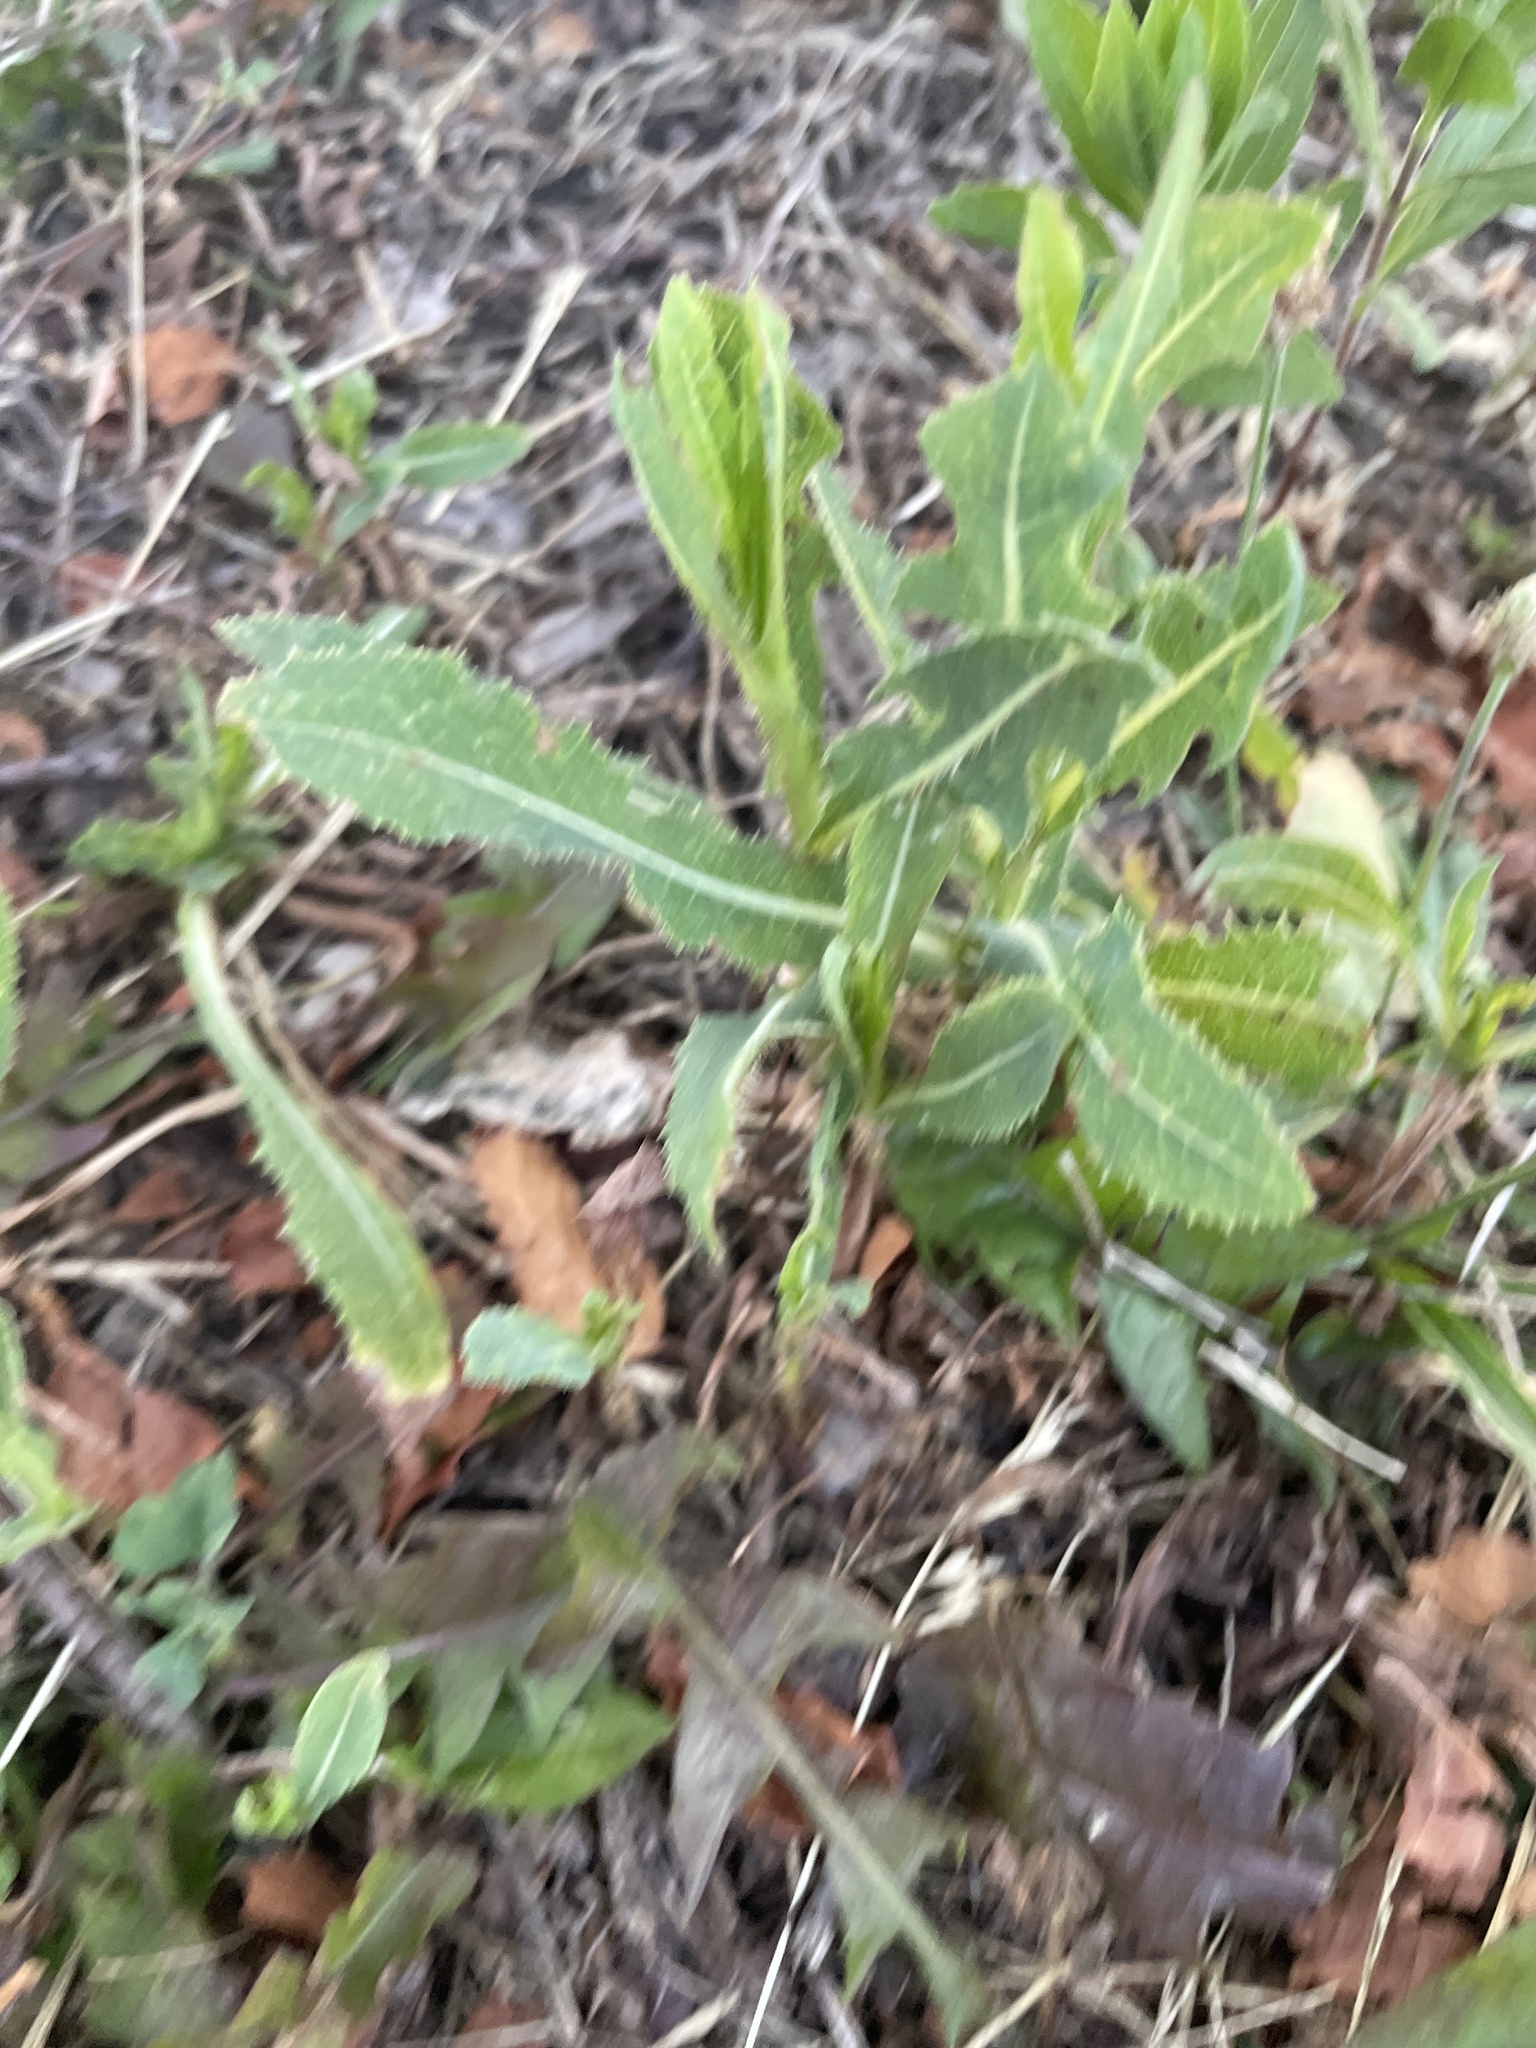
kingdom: Plantae
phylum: Tracheophyta
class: Magnoliopsida
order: Asterales
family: Asteraceae
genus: Lactuca
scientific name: Lactuca serriola
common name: Prickly lettuce
